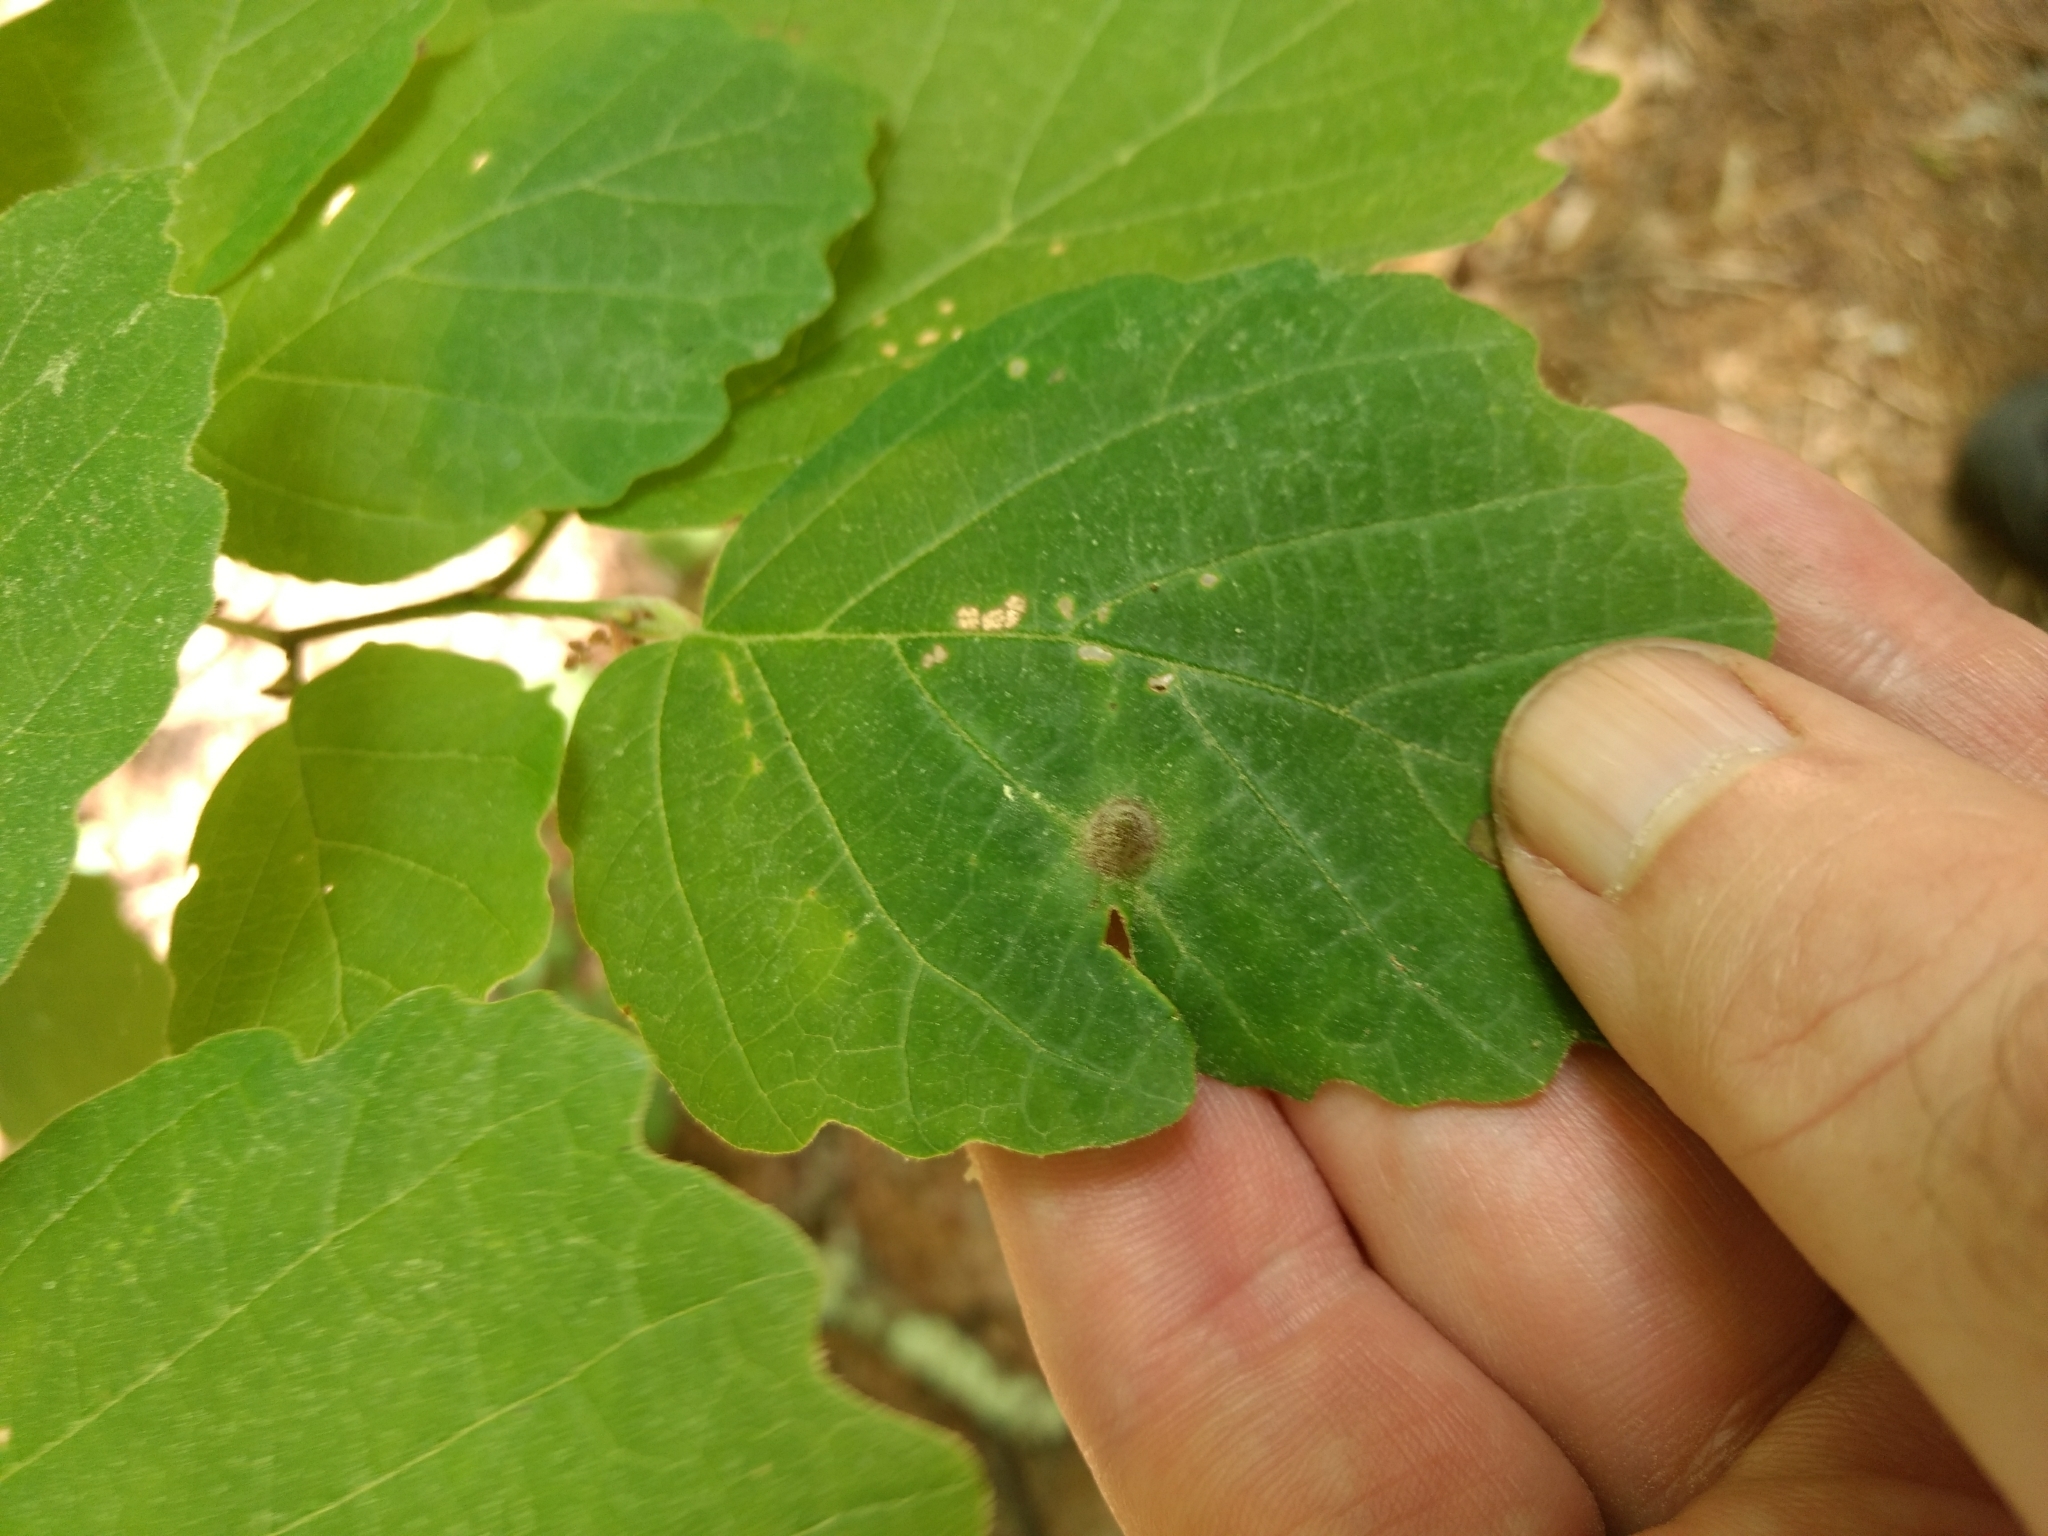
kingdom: Animalia
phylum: Arthropoda
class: Insecta
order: Hemiptera
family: Aphididae
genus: Hormaphis
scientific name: Hormaphis hamamelidis
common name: Witch-hazel cone gall aphid
